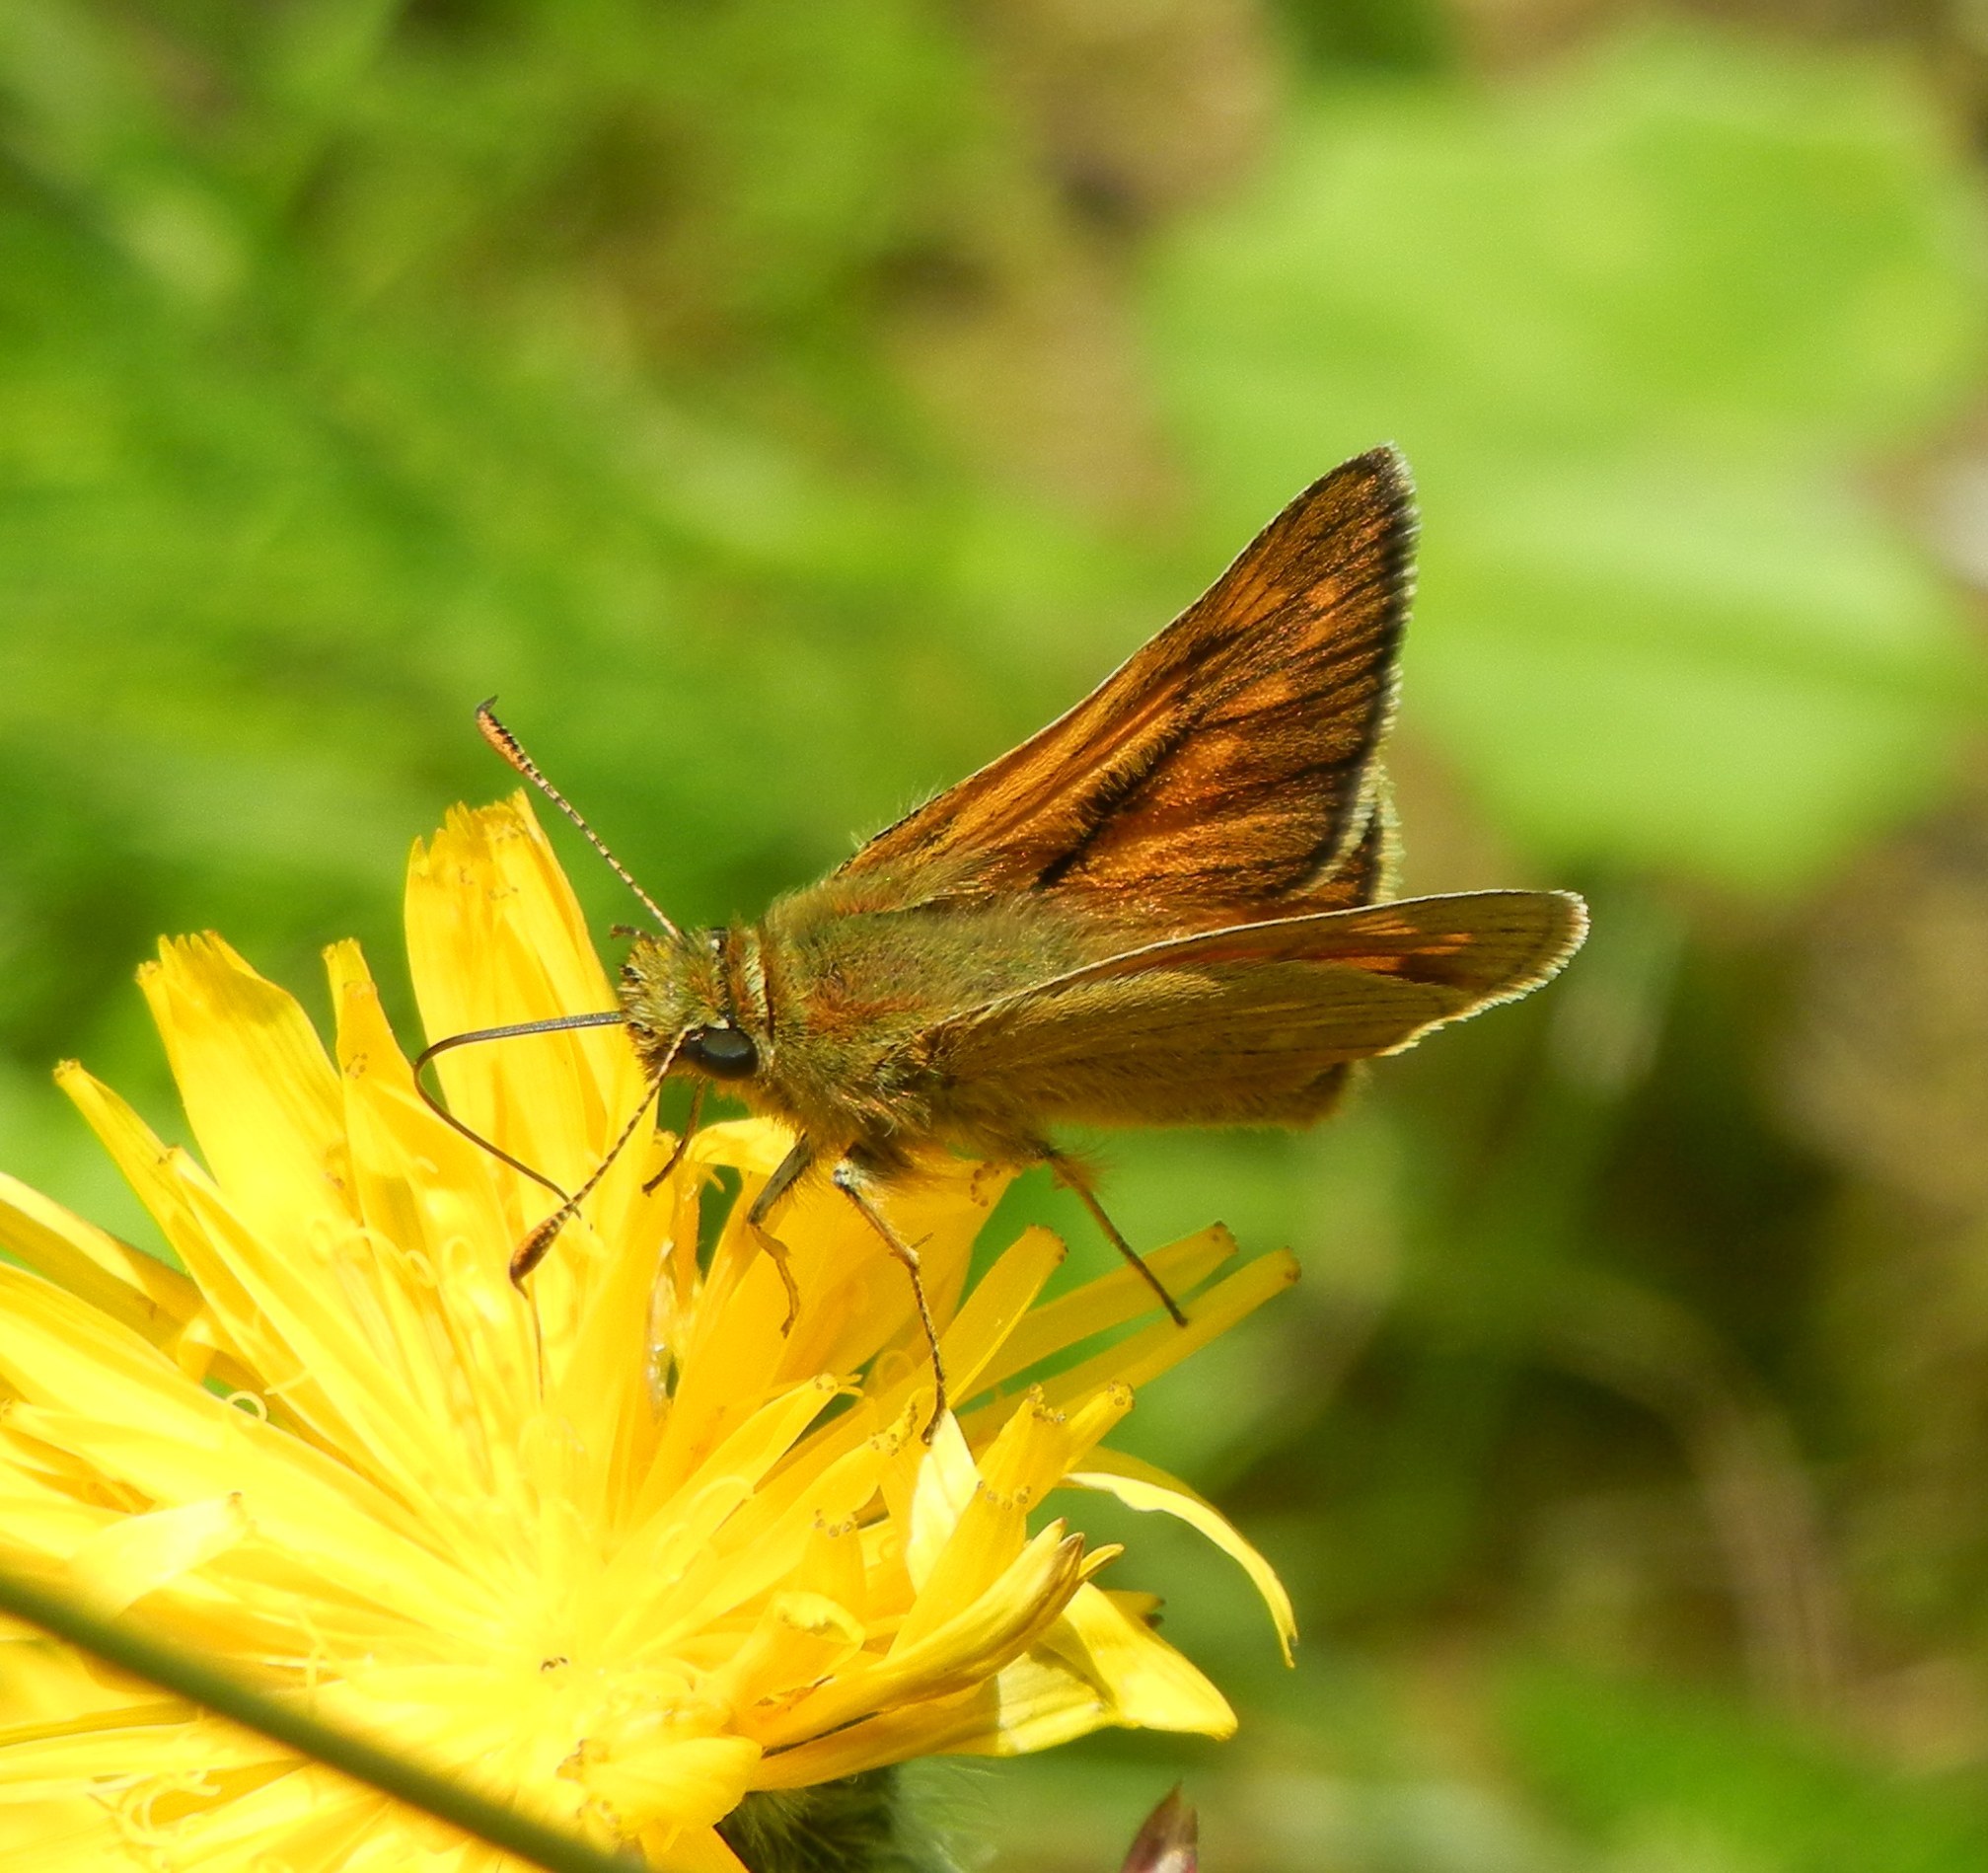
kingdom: Animalia
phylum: Arthropoda
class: Insecta
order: Lepidoptera
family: Hesperiidae
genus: Ochlodes
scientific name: Ochlodes venata
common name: Large skipper
